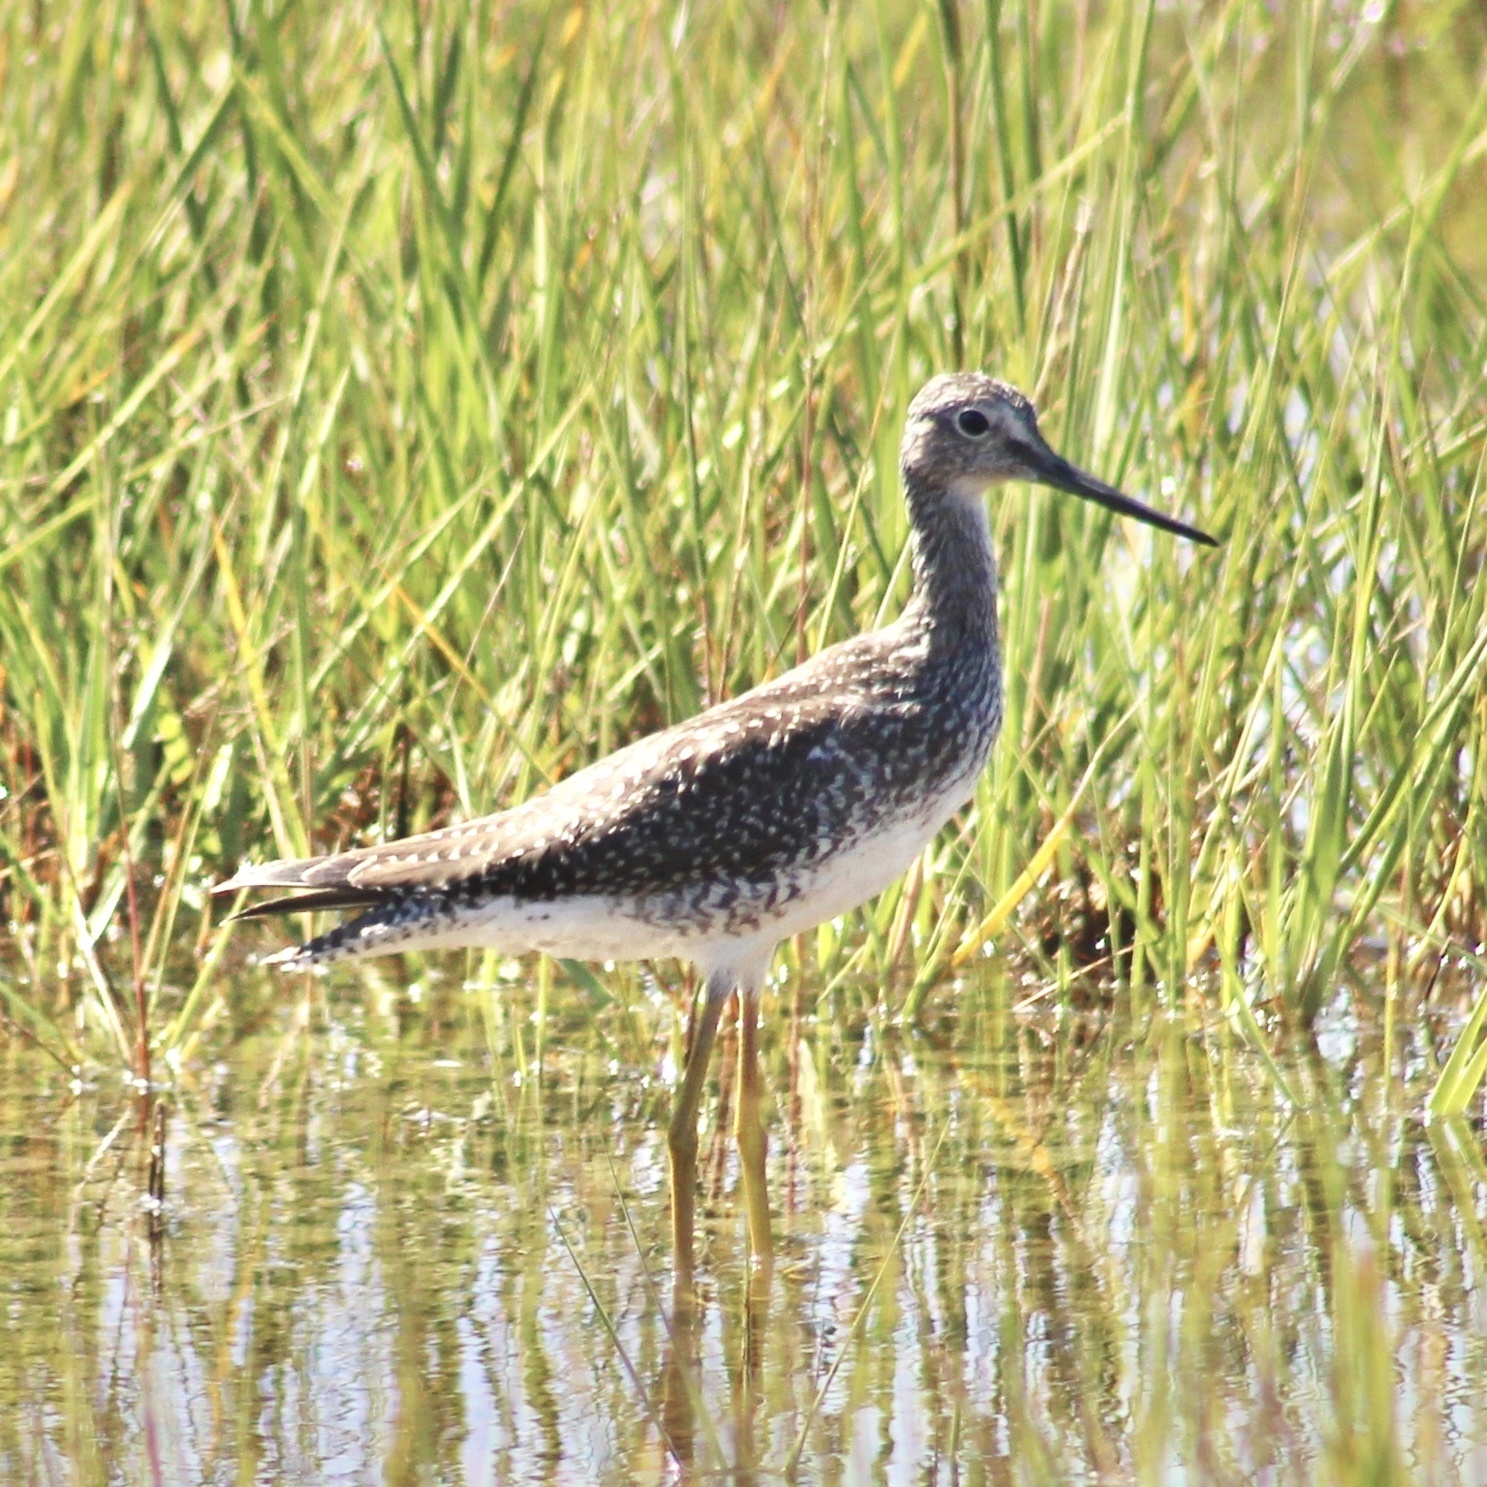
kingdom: Animalia
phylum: Chordata
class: Aves
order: Charadriiformes
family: Scolopacidae
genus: Tringa
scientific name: Tringa melanoleuca
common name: Greater yellowlegs
